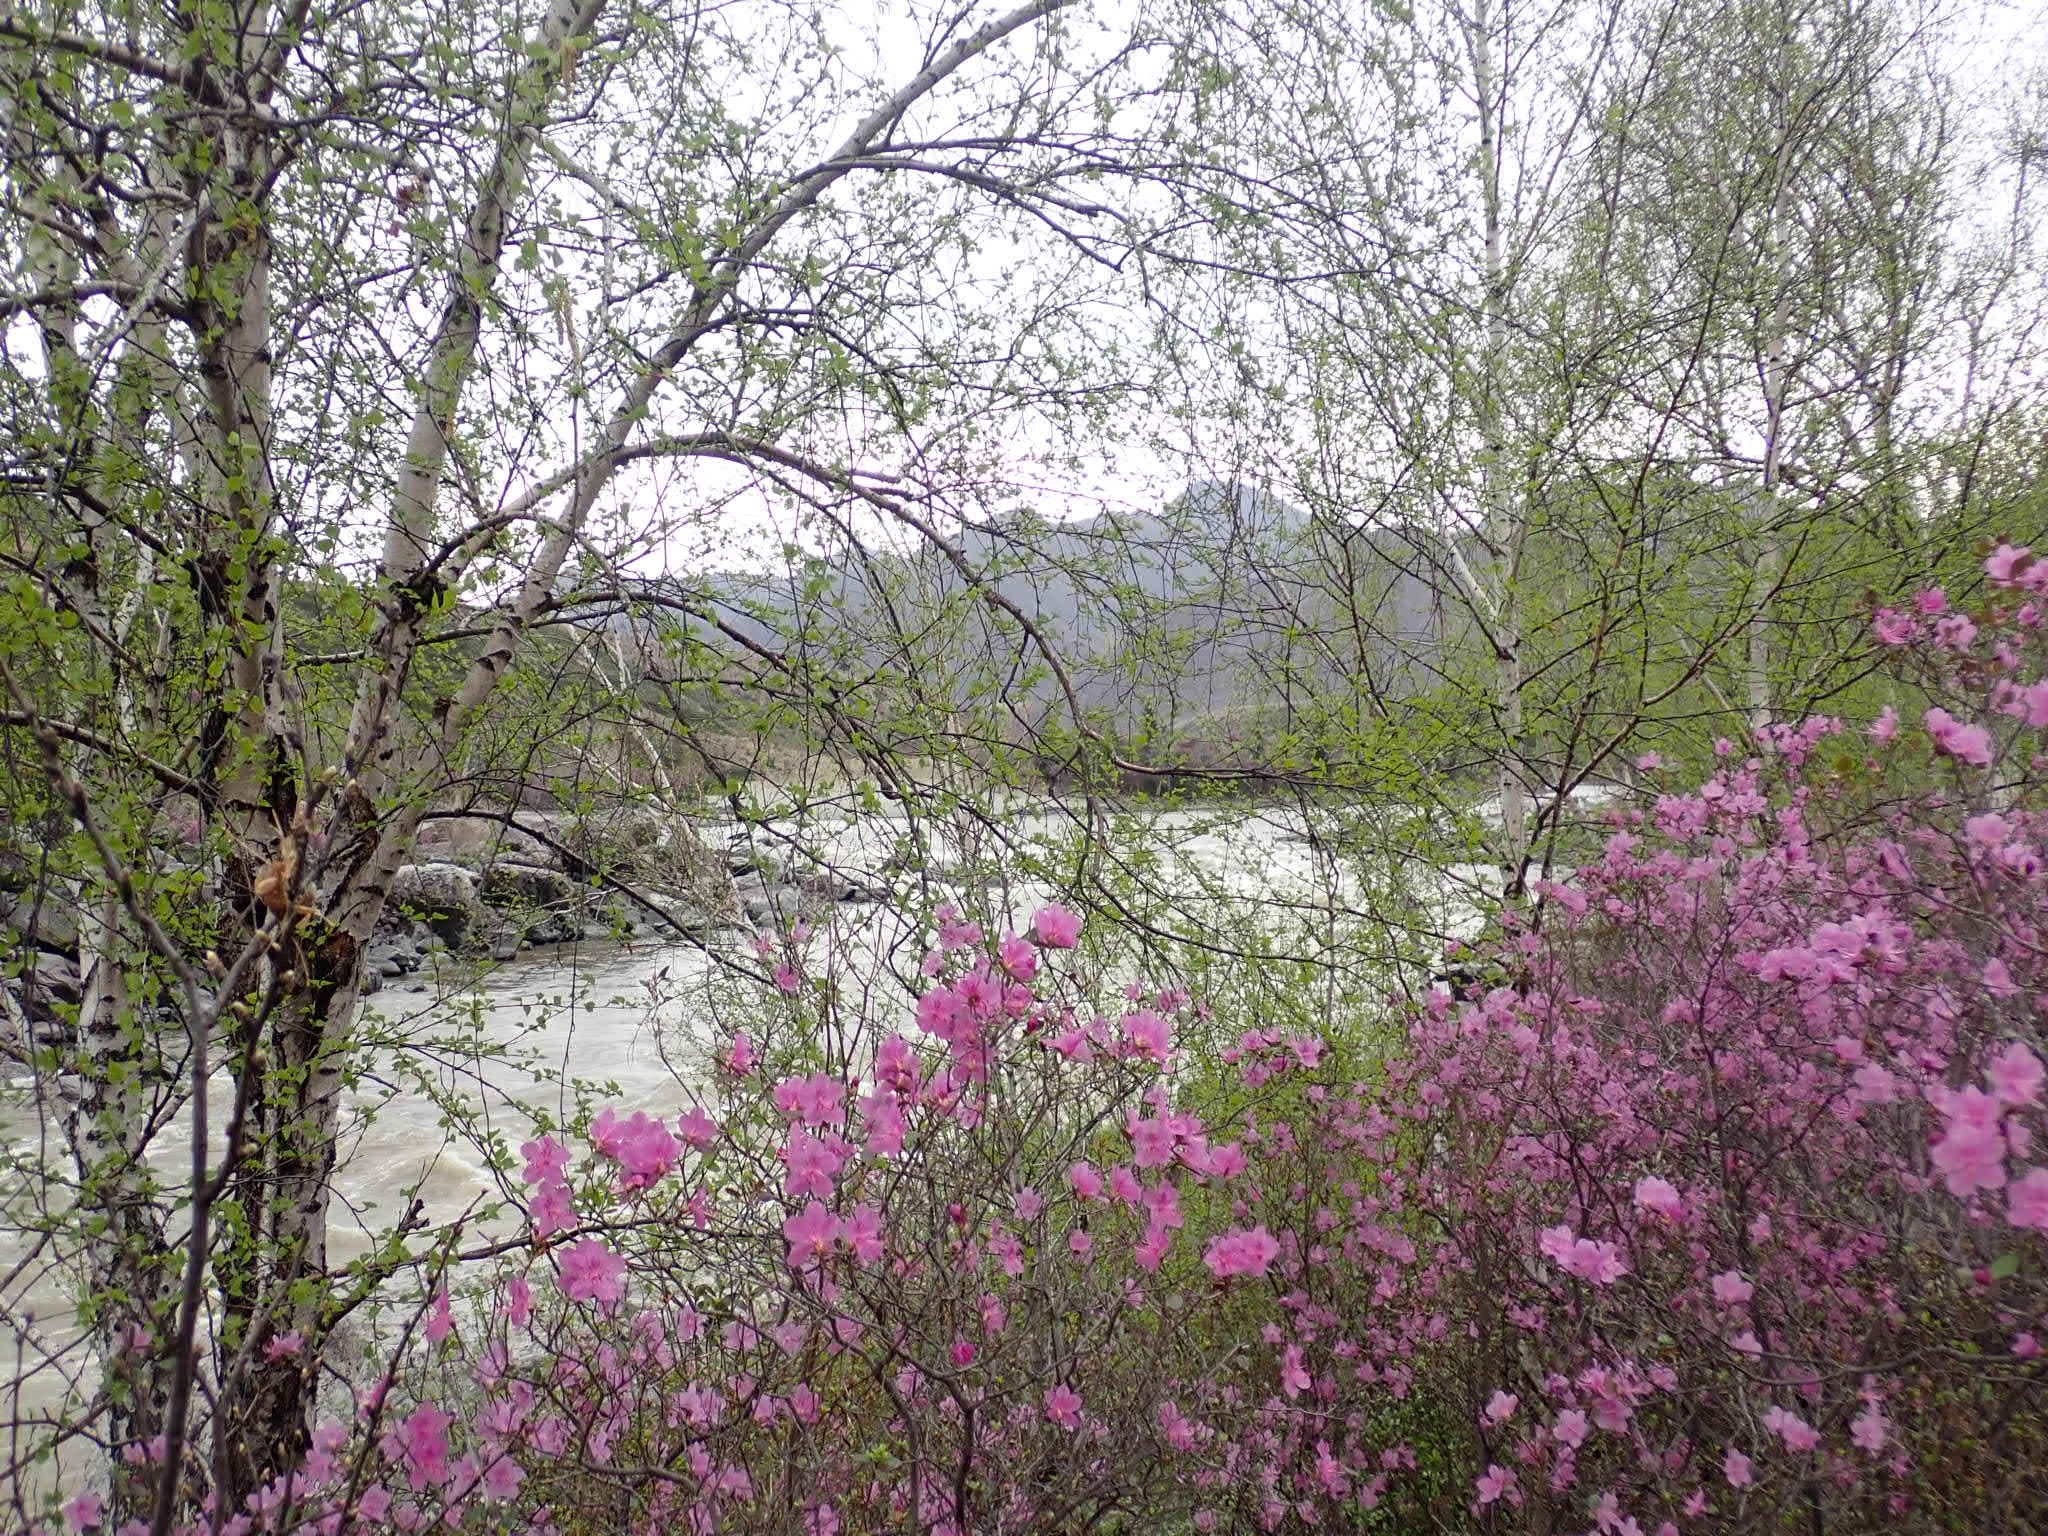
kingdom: Plantae
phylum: Tracheophyta
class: Magnoliopsida
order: Ericales
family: Ericaceae
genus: Rhododendron
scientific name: Rhododendron dauricum
